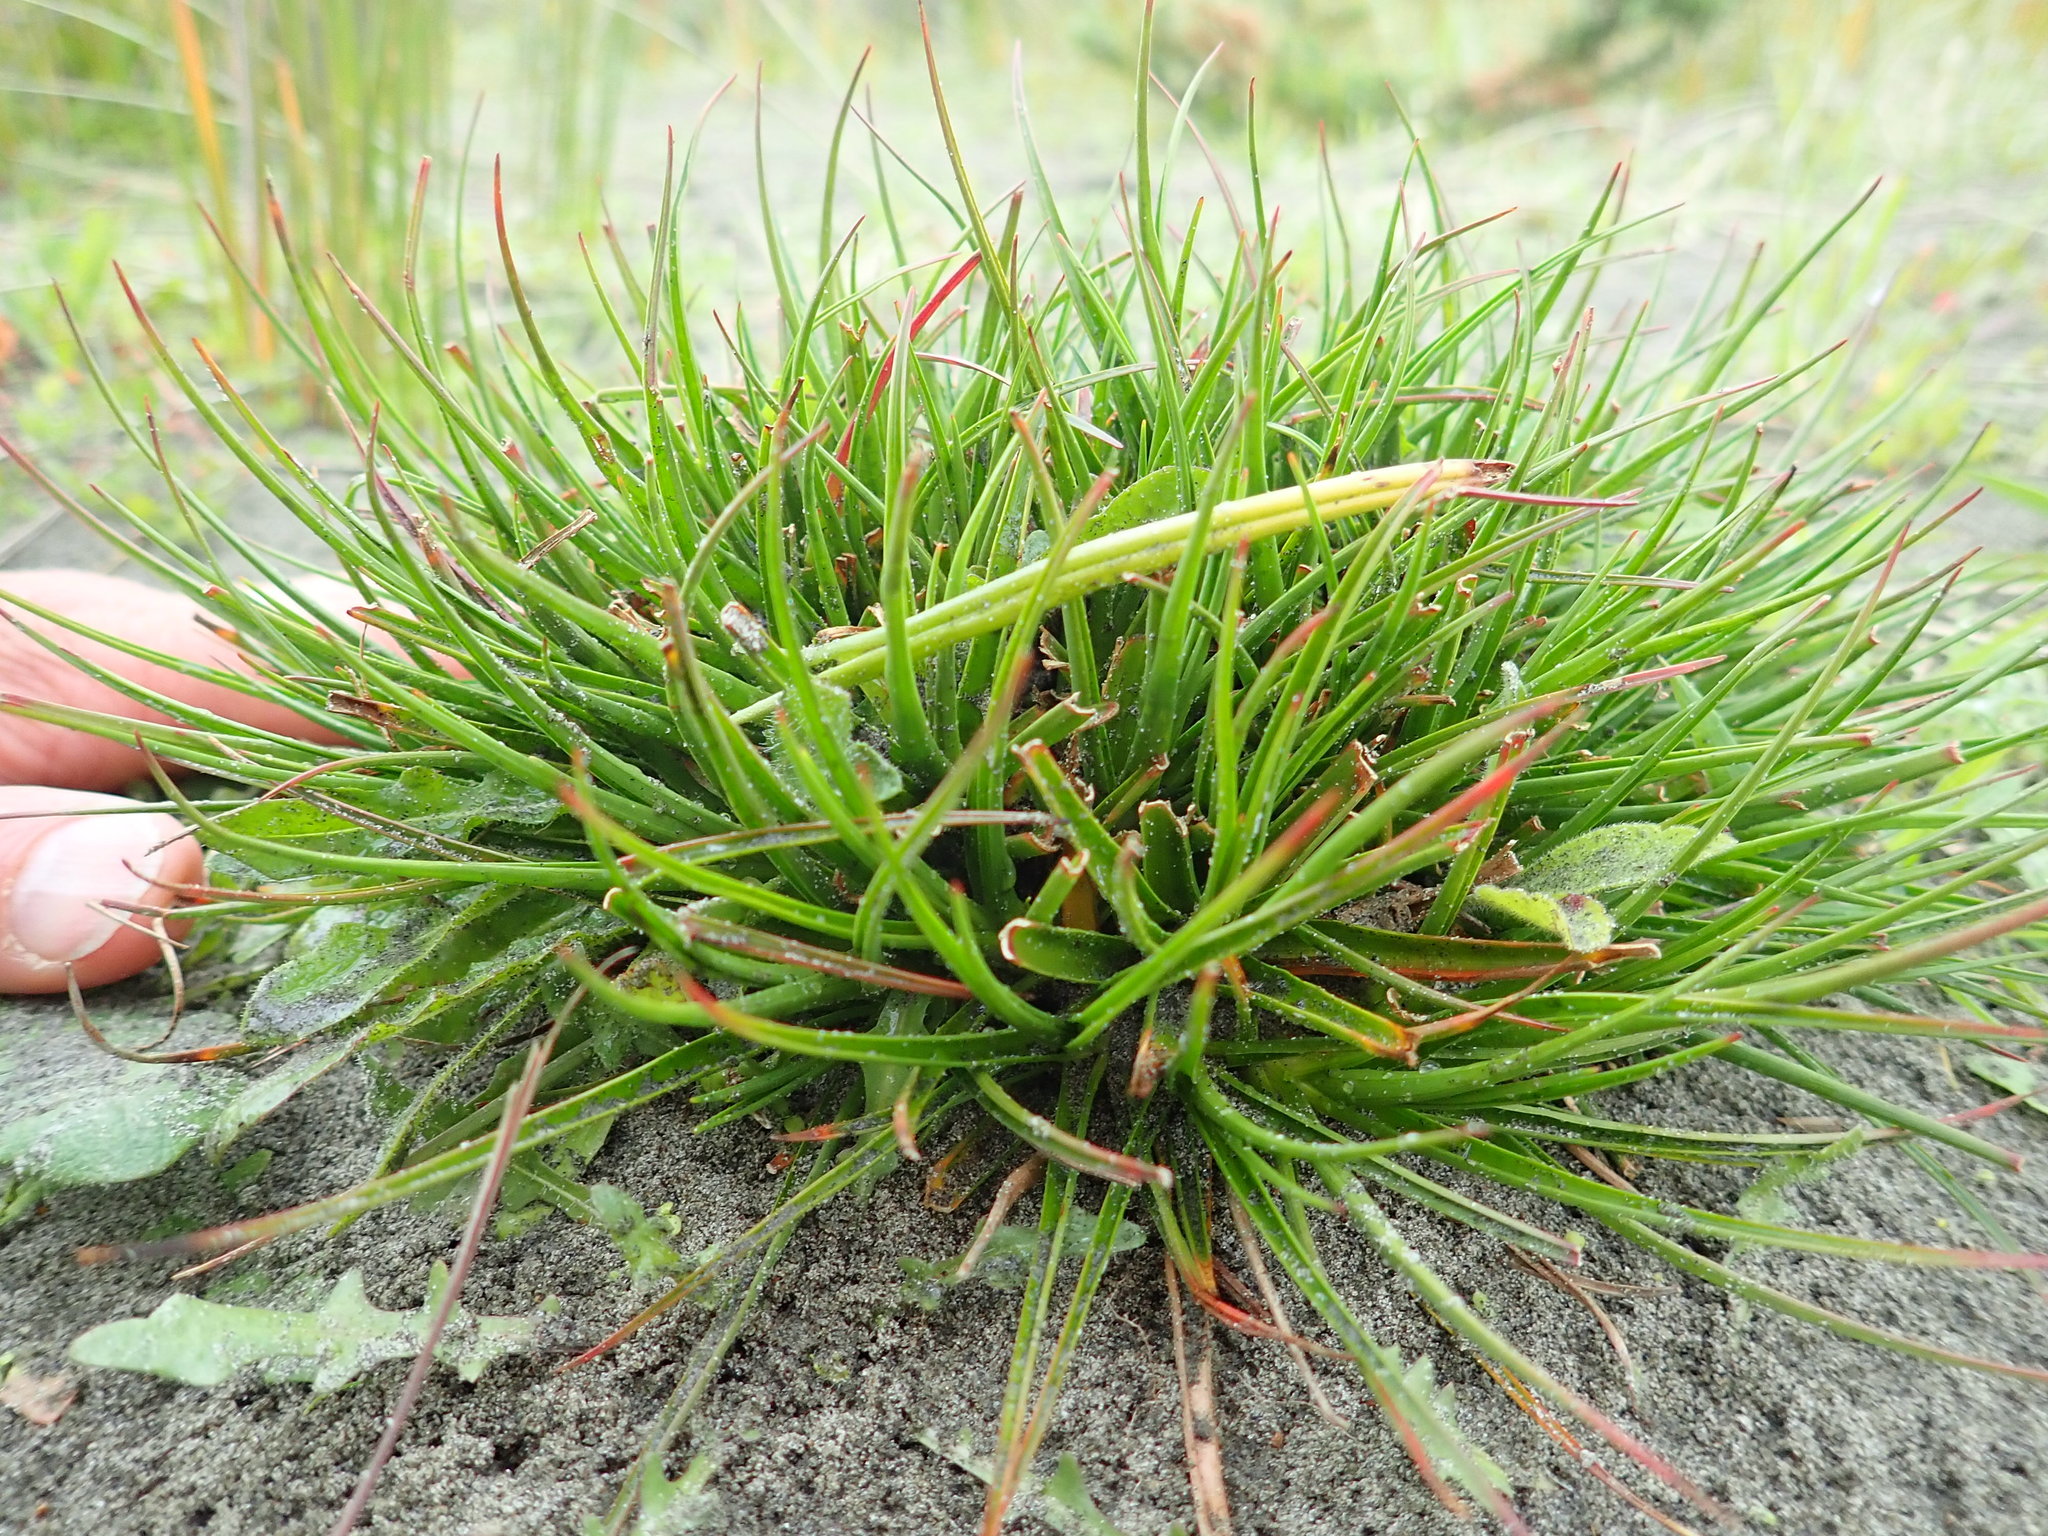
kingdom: Plantae
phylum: Tracheophyta
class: Liliopsida
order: Poales
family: Juncaceae
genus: Juncus
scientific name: Juncus caespiticius
